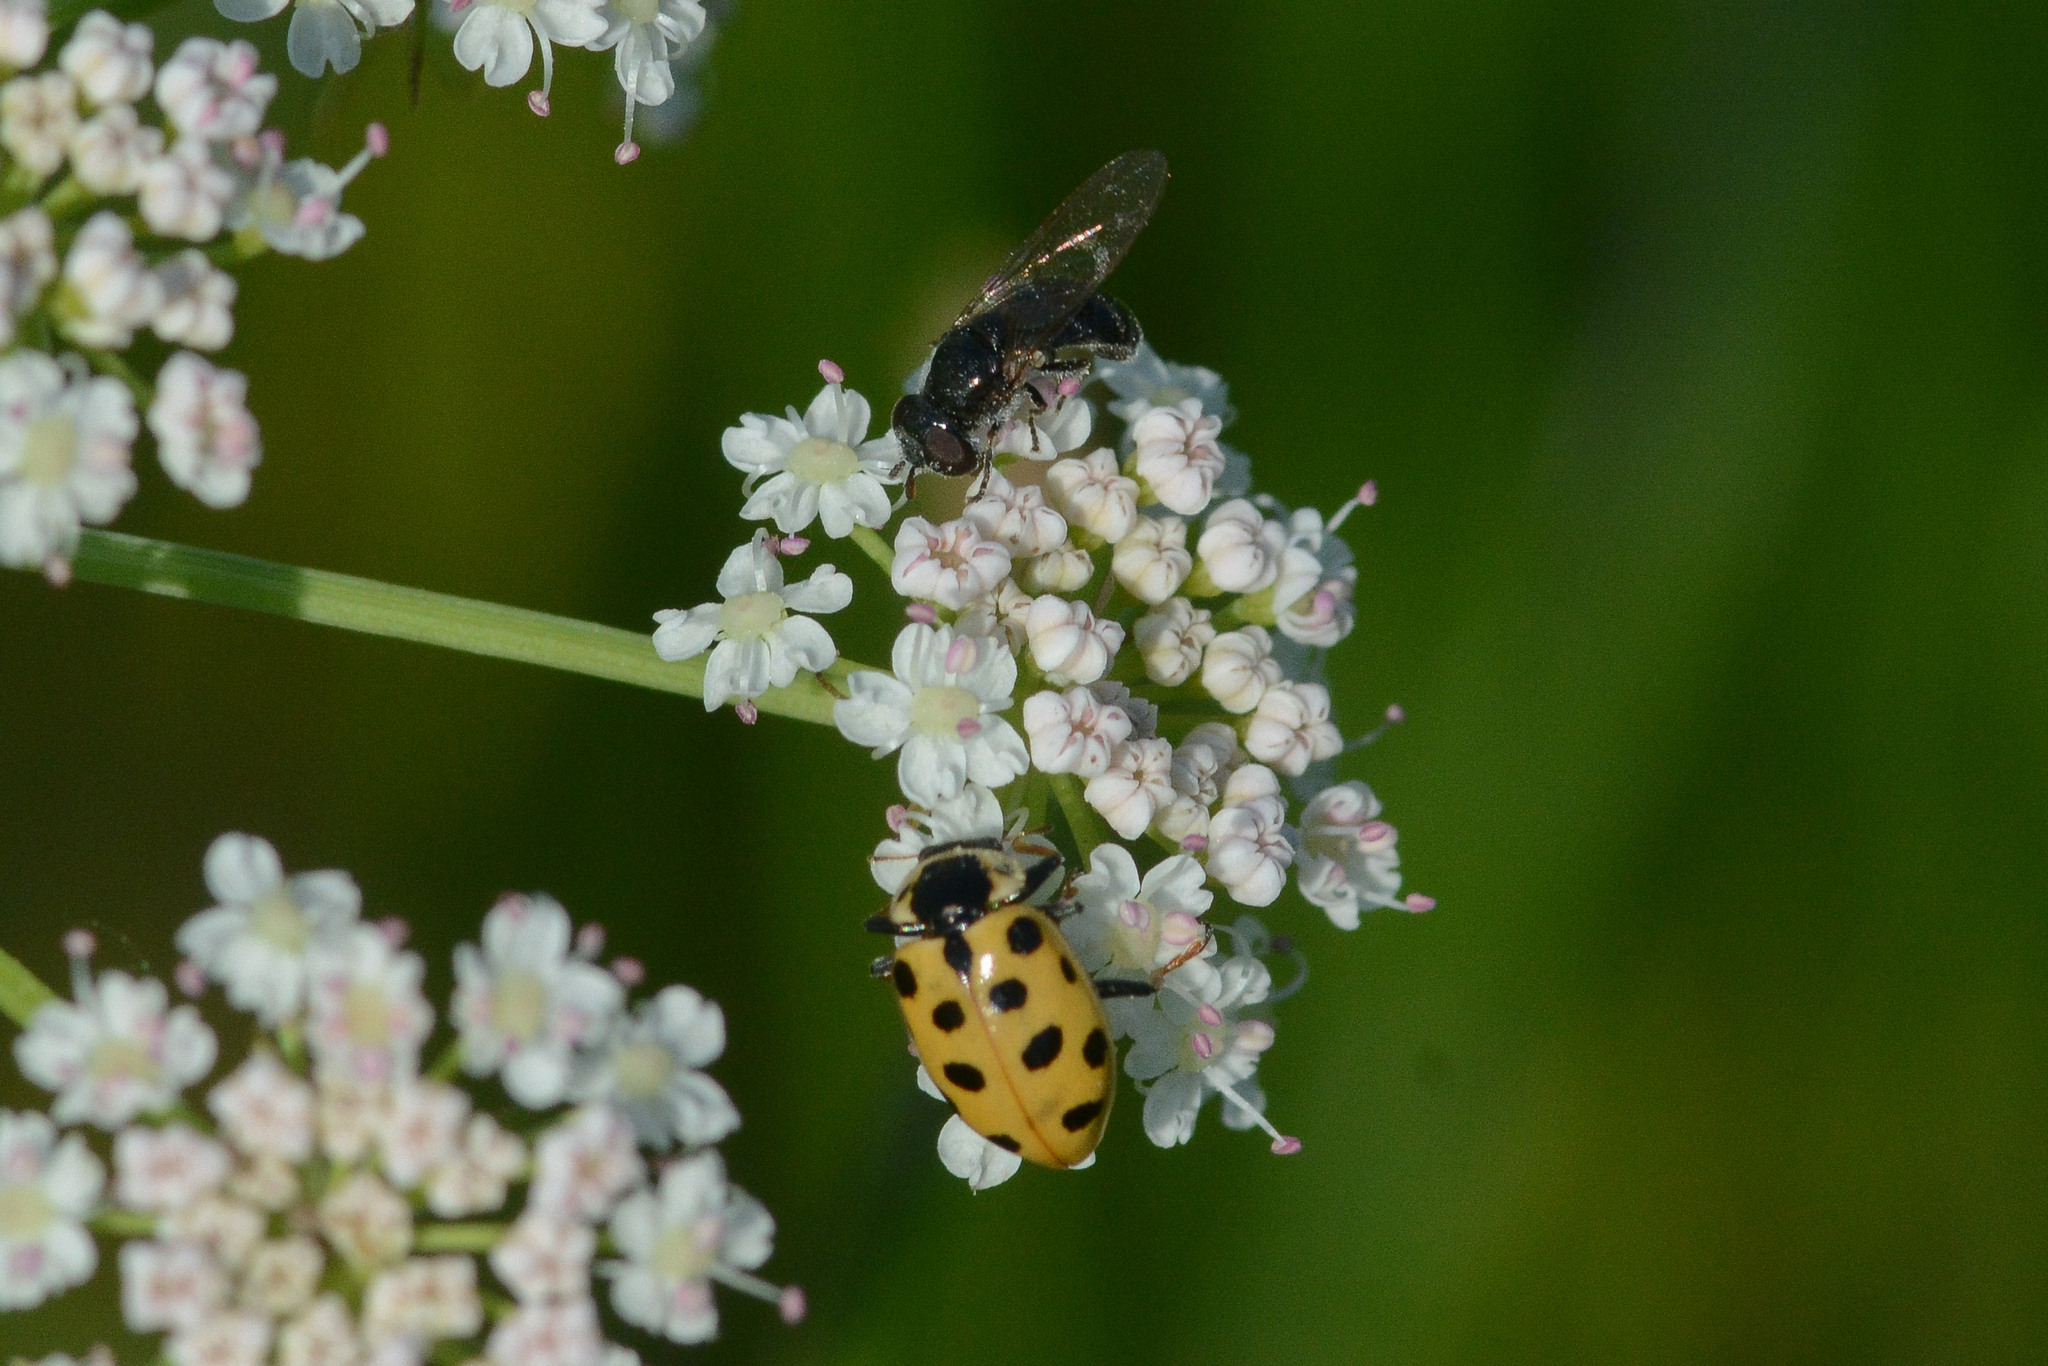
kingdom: Animalia
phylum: Arthropoda
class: Insecta
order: Coleoptera
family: Coccinellidae
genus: Hippodamia
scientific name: Hippodamia tredecimpunctata
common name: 13-spot ladybird
